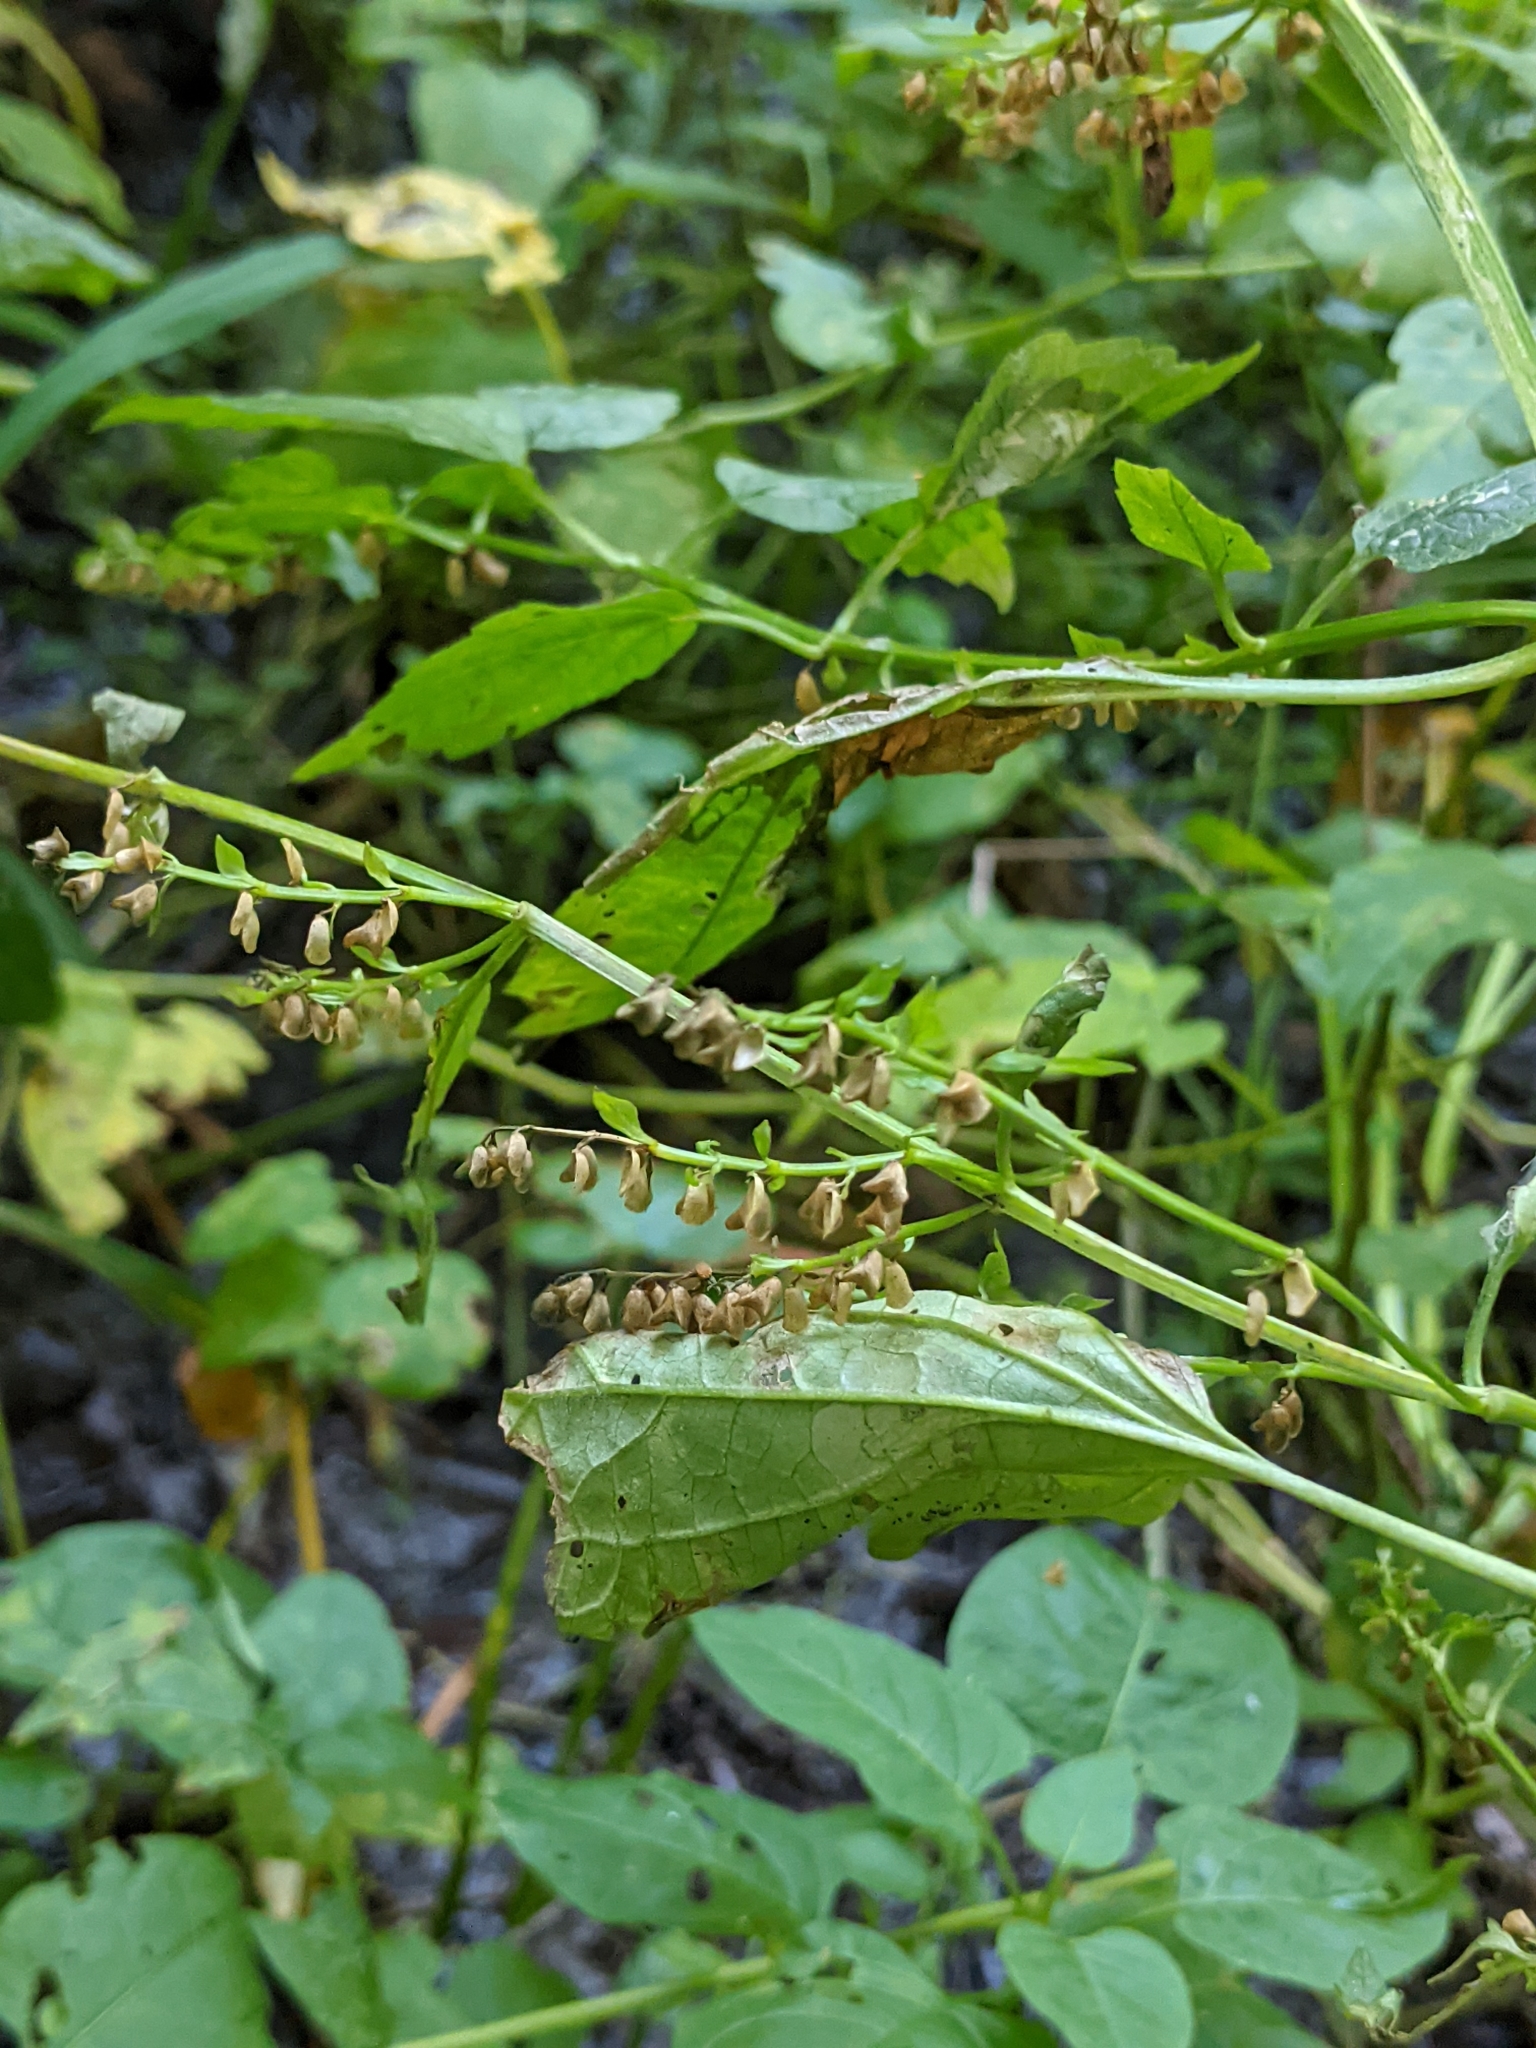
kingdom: Plantae
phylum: Tracheophyta
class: Magnoliopsida
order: Lamiales
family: Lamiaceae
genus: Scutellaria
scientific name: Scutellaria lateriflora
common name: Blue skullcap
